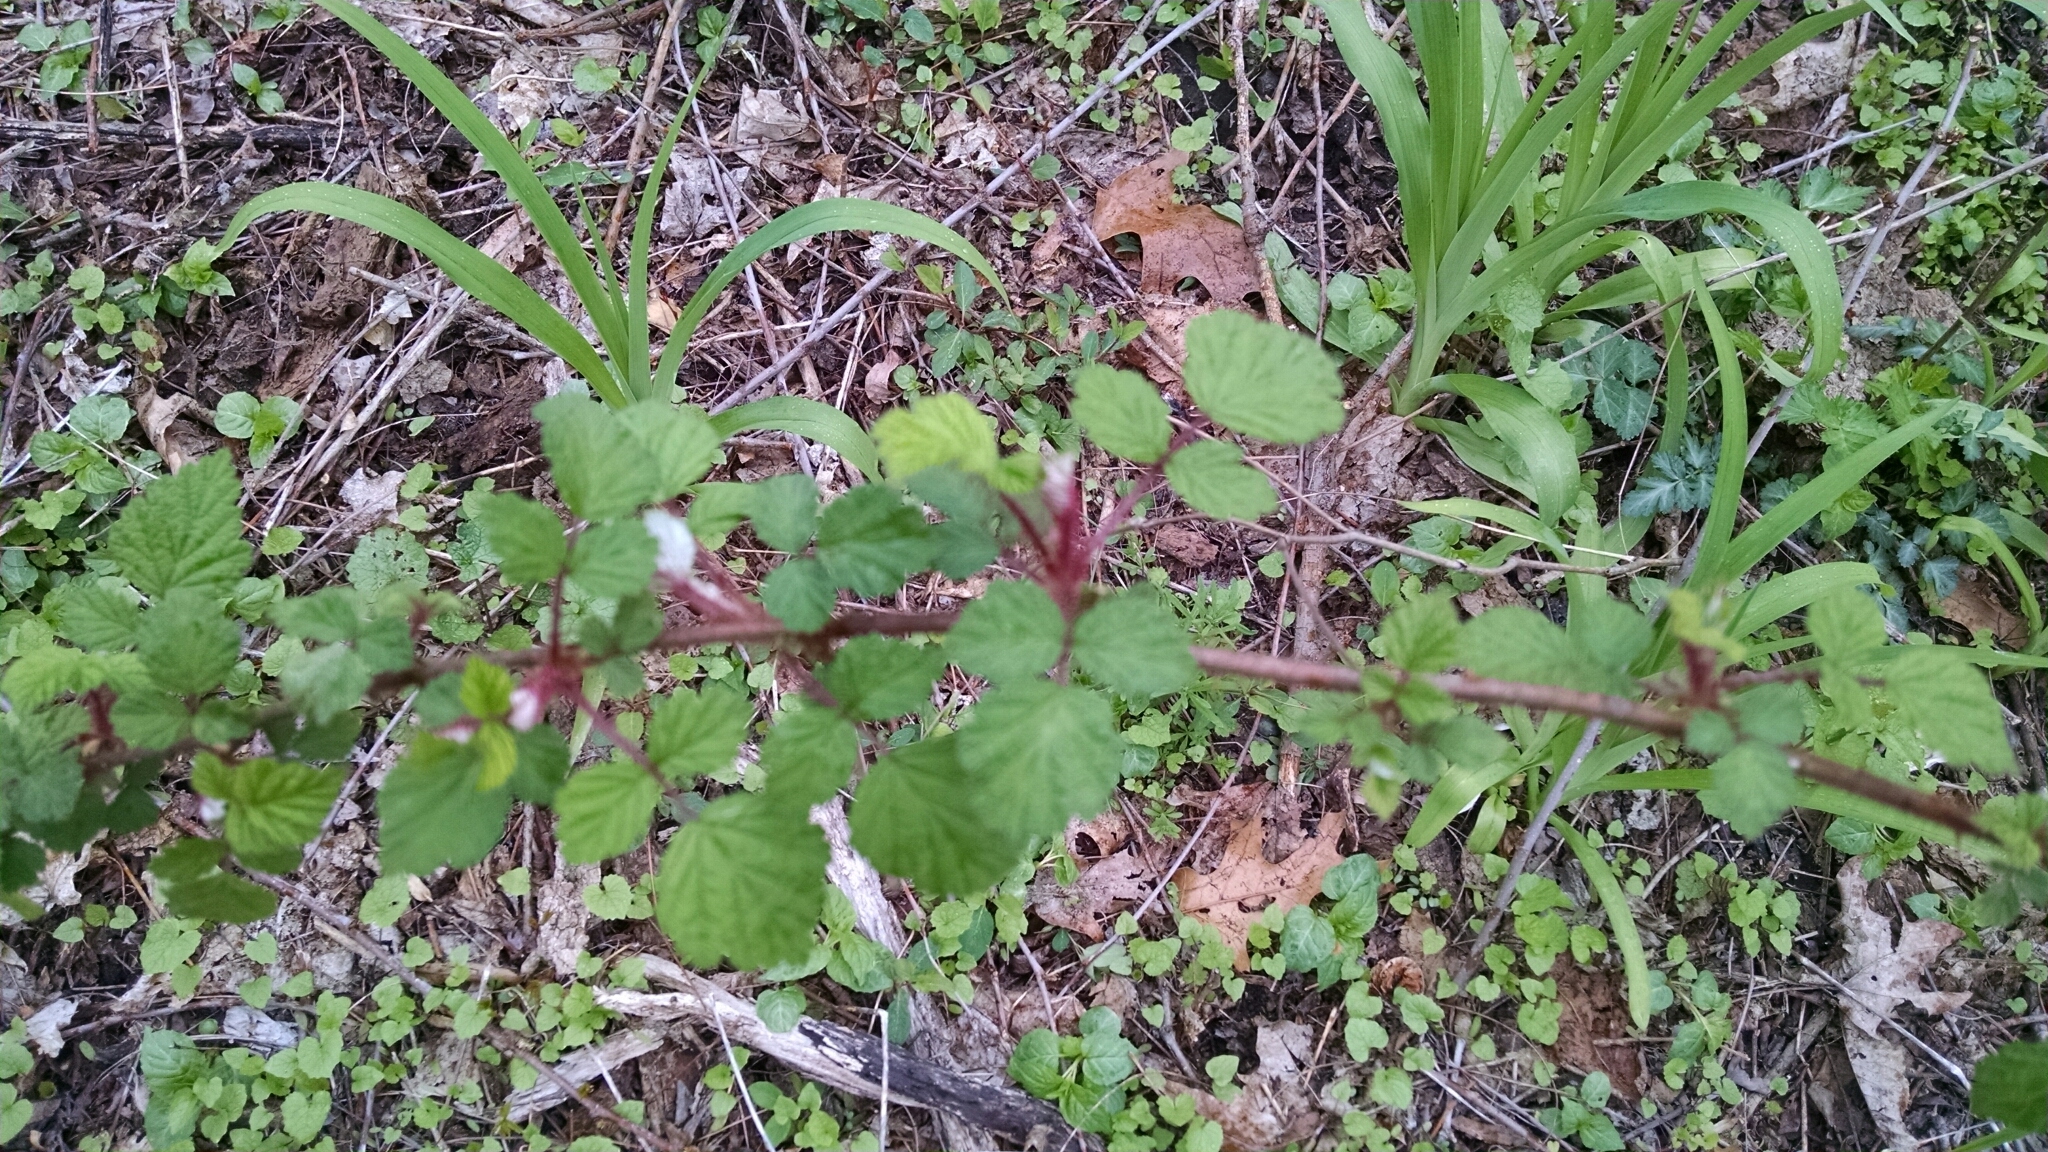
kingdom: Plantae
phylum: Tracheophyta
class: Magnoliopsida
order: Rosales
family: Rosaceae
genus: Rubus
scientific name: Rubus phoenicolasius
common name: Japanese wineberry
